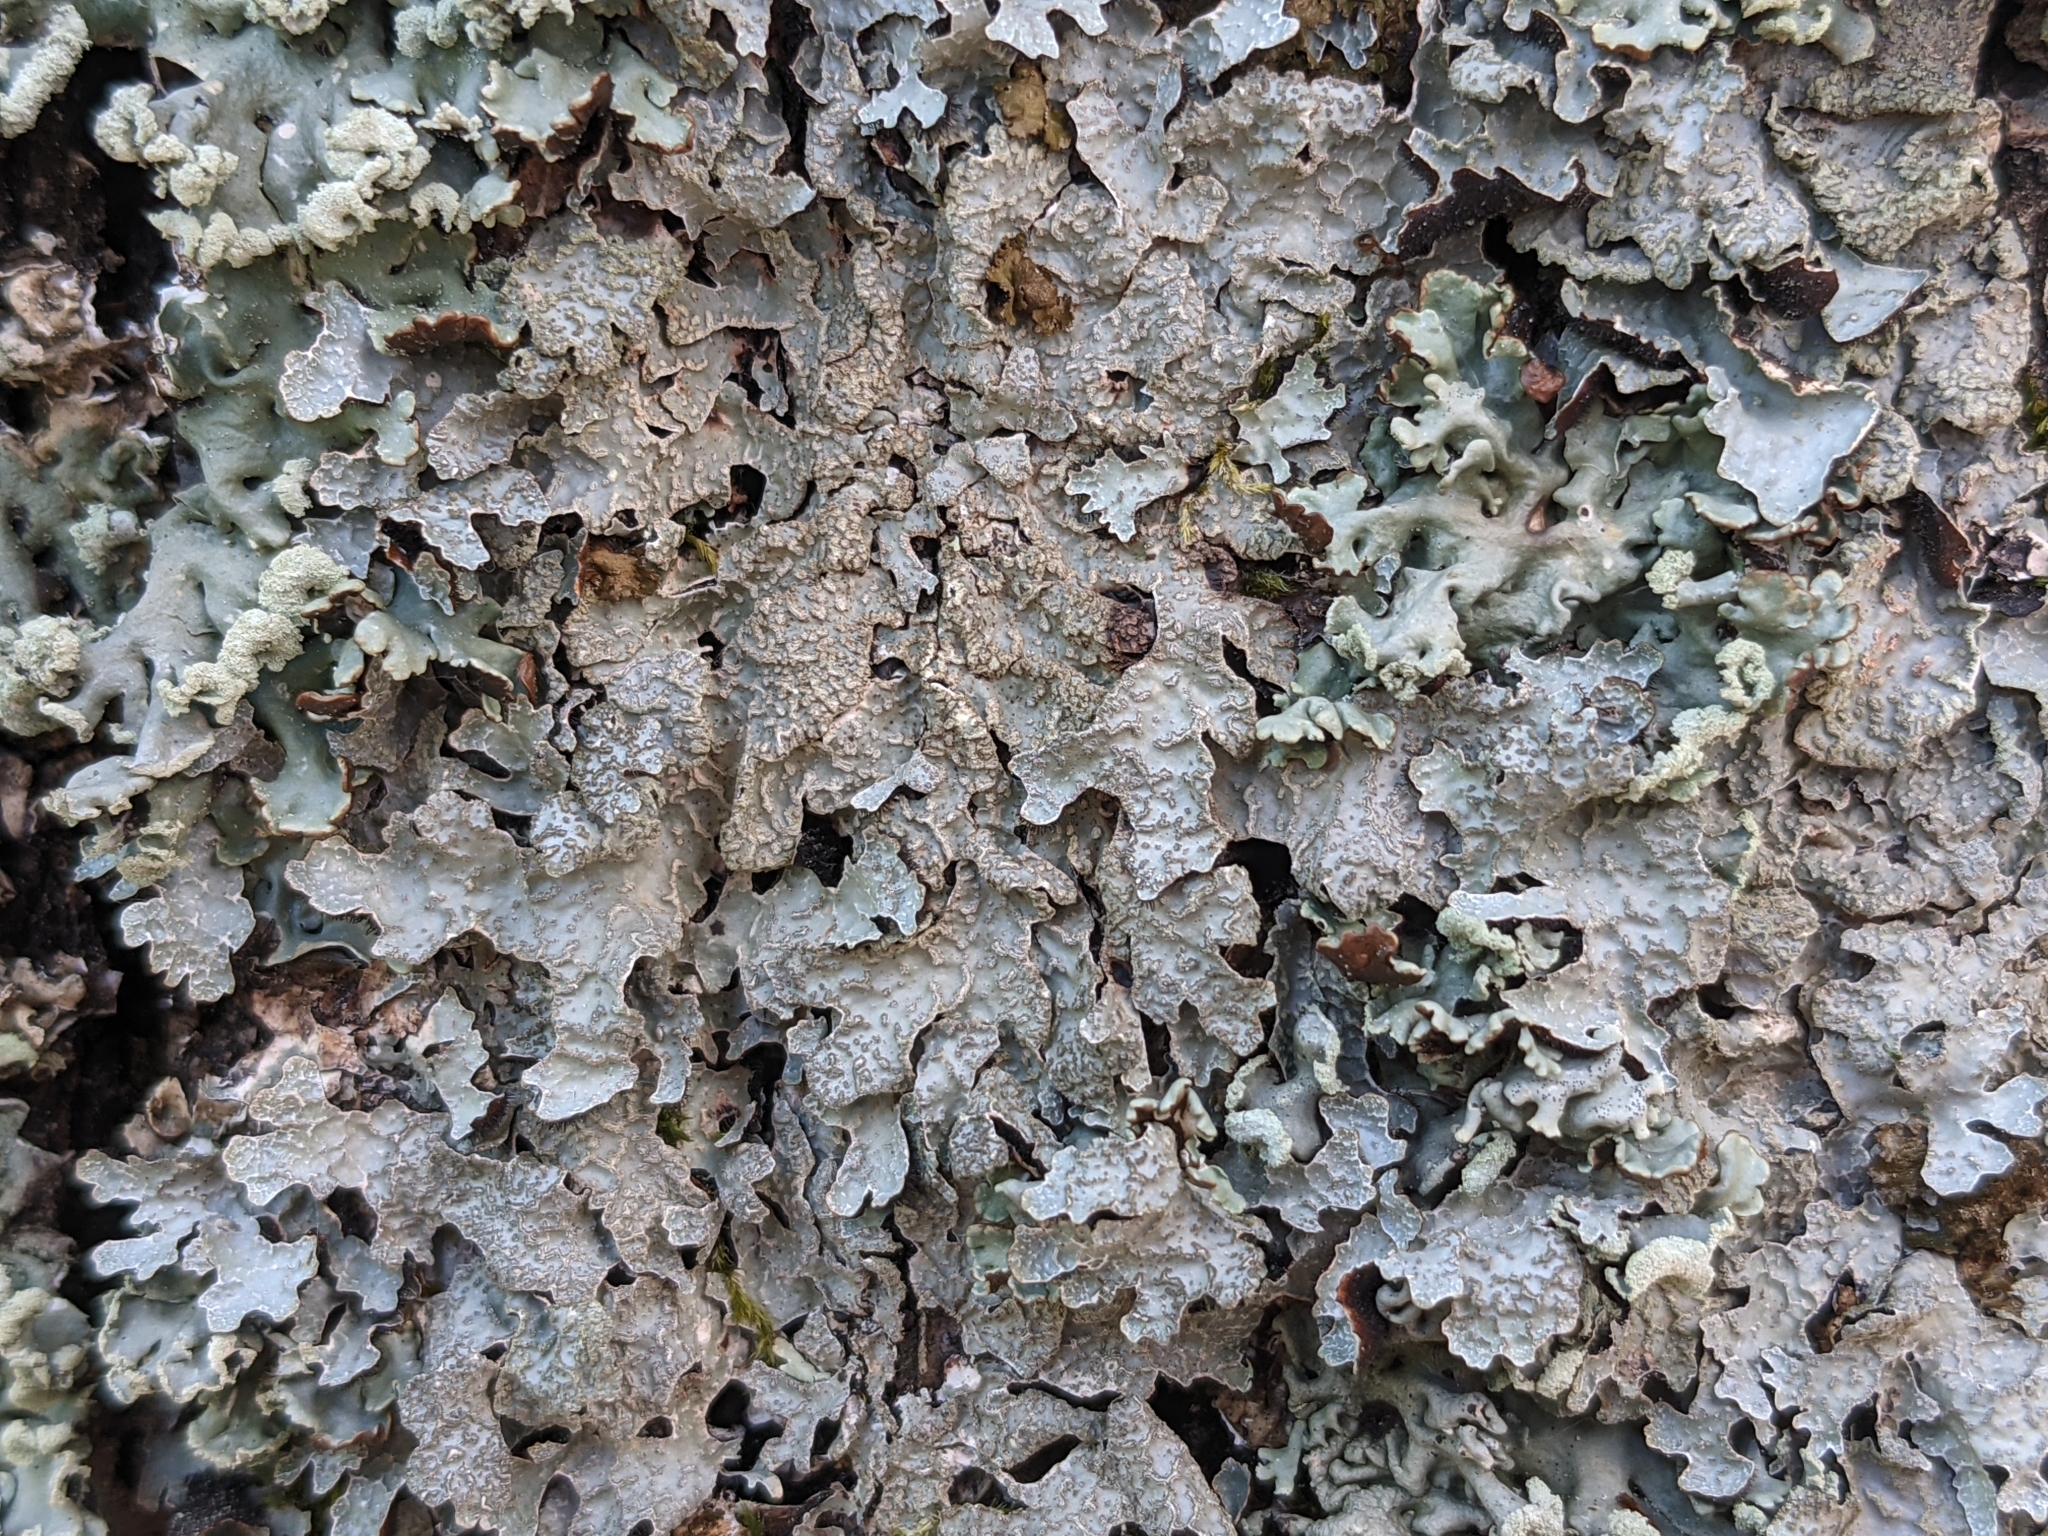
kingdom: Fungi
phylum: Ascomycota
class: Lecanoromycetes
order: Lecanorales
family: Parmeliaceae
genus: Parmelia
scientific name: Parmelia sulcata
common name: Netted shield lichen
